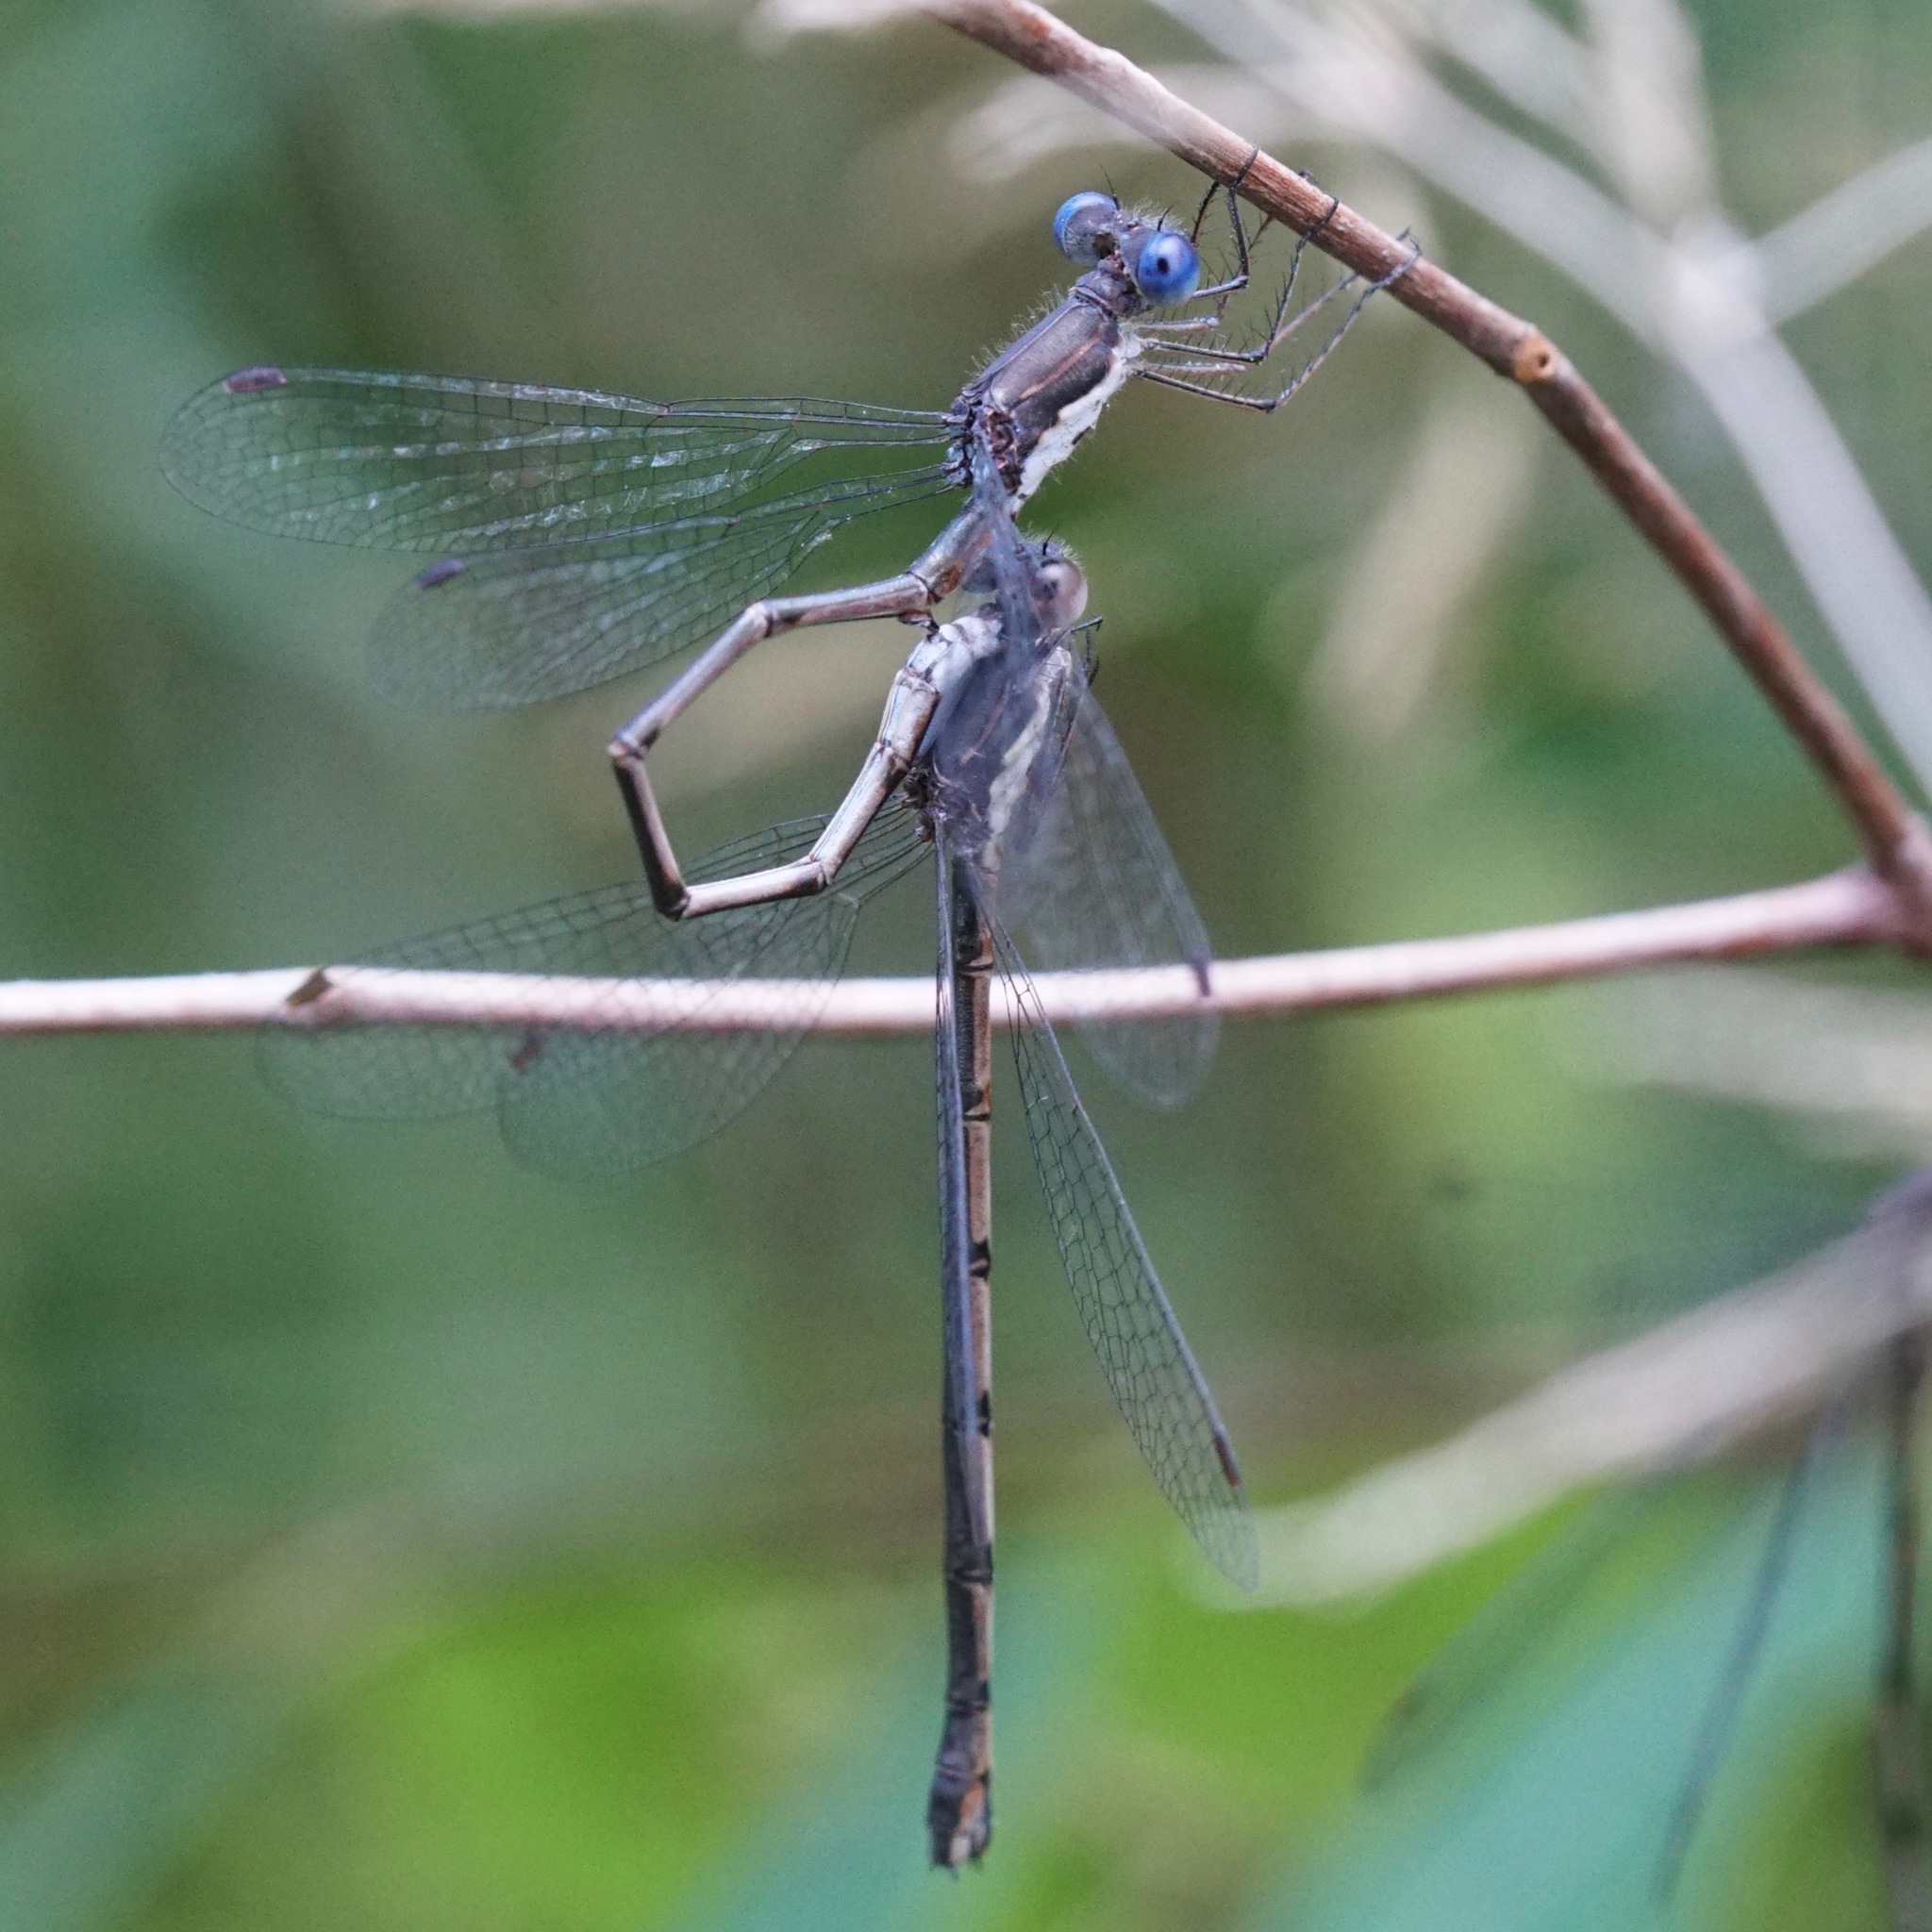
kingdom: Animalia
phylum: Arthropoda
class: Insecta
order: Odonata
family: Lestidae
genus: Lestes
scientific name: Lestes congener
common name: Spotted spreadwing
